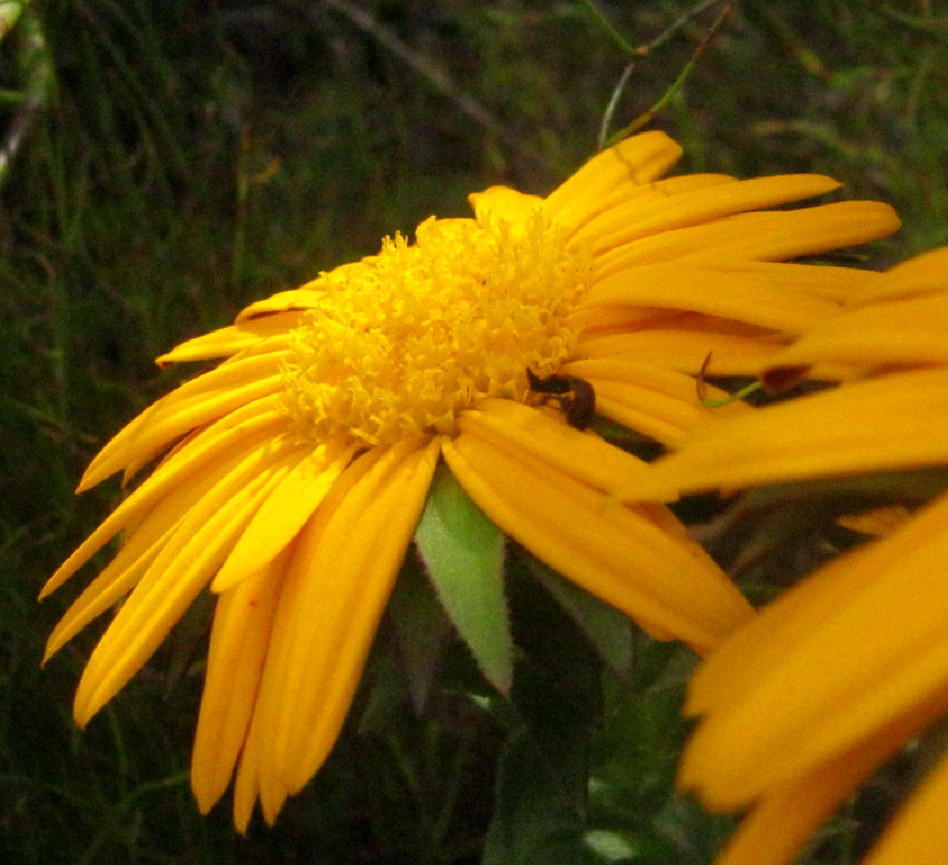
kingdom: Plantae
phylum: Tracheophyta
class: Magnoliopsida
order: Asterales
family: Asteraceae
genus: Oedera
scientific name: Oedera imbricata
